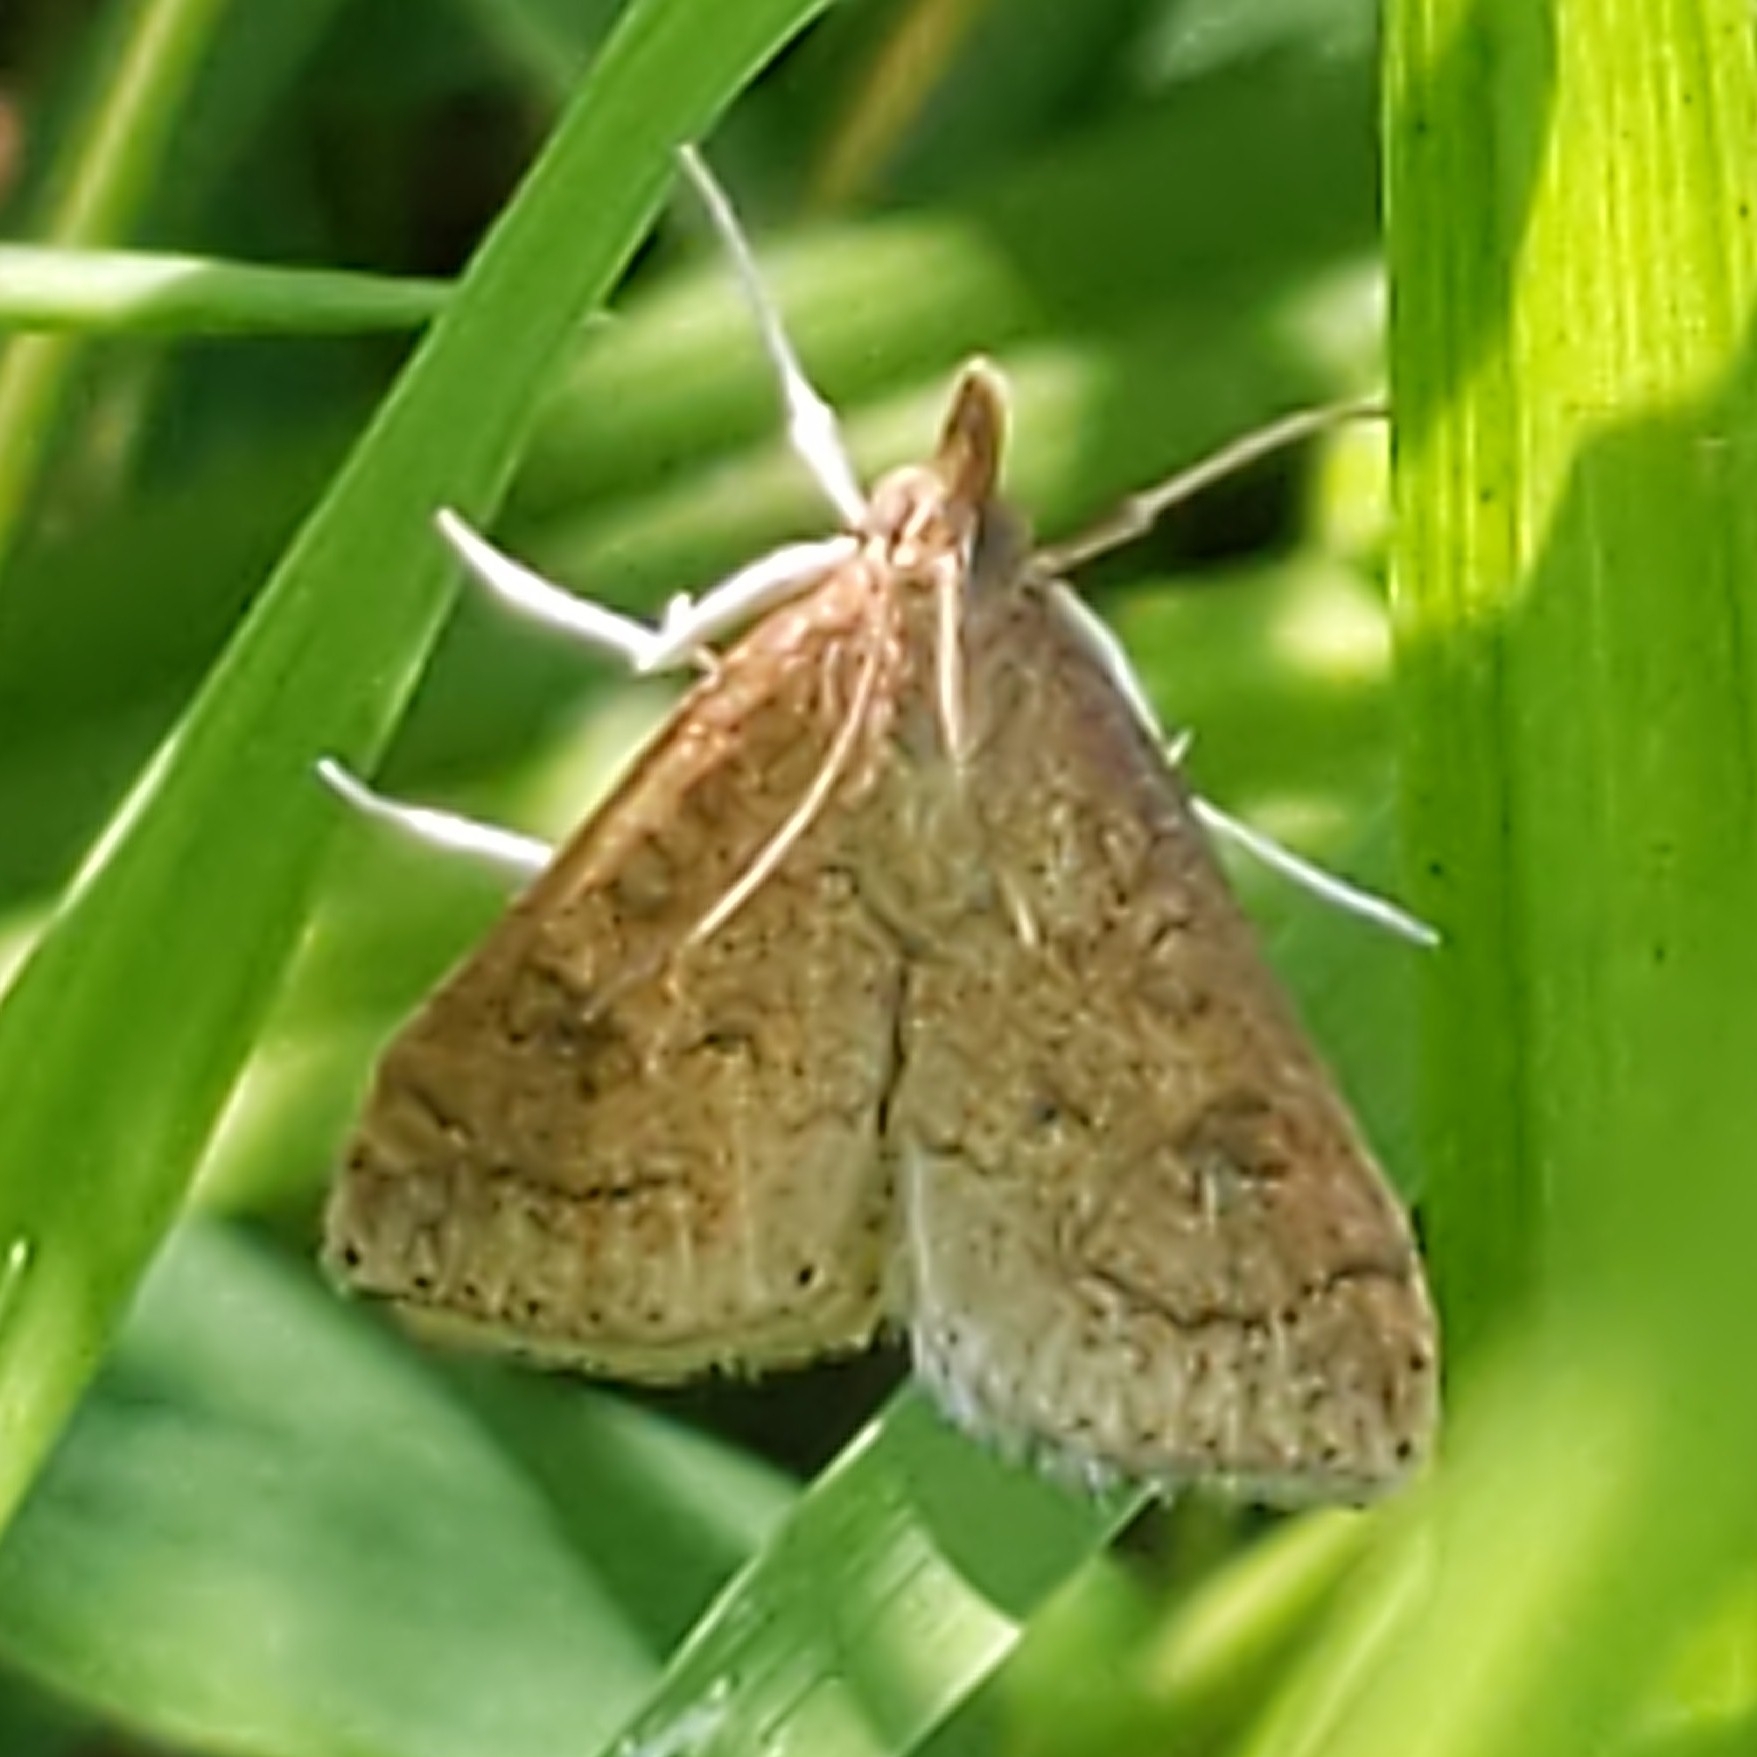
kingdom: Animalia
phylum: Arthropoda
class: Insecta
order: Lepidoptera
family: Crambidae
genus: Udea
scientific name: Udea rubigalis
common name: Celery leaftier moth
